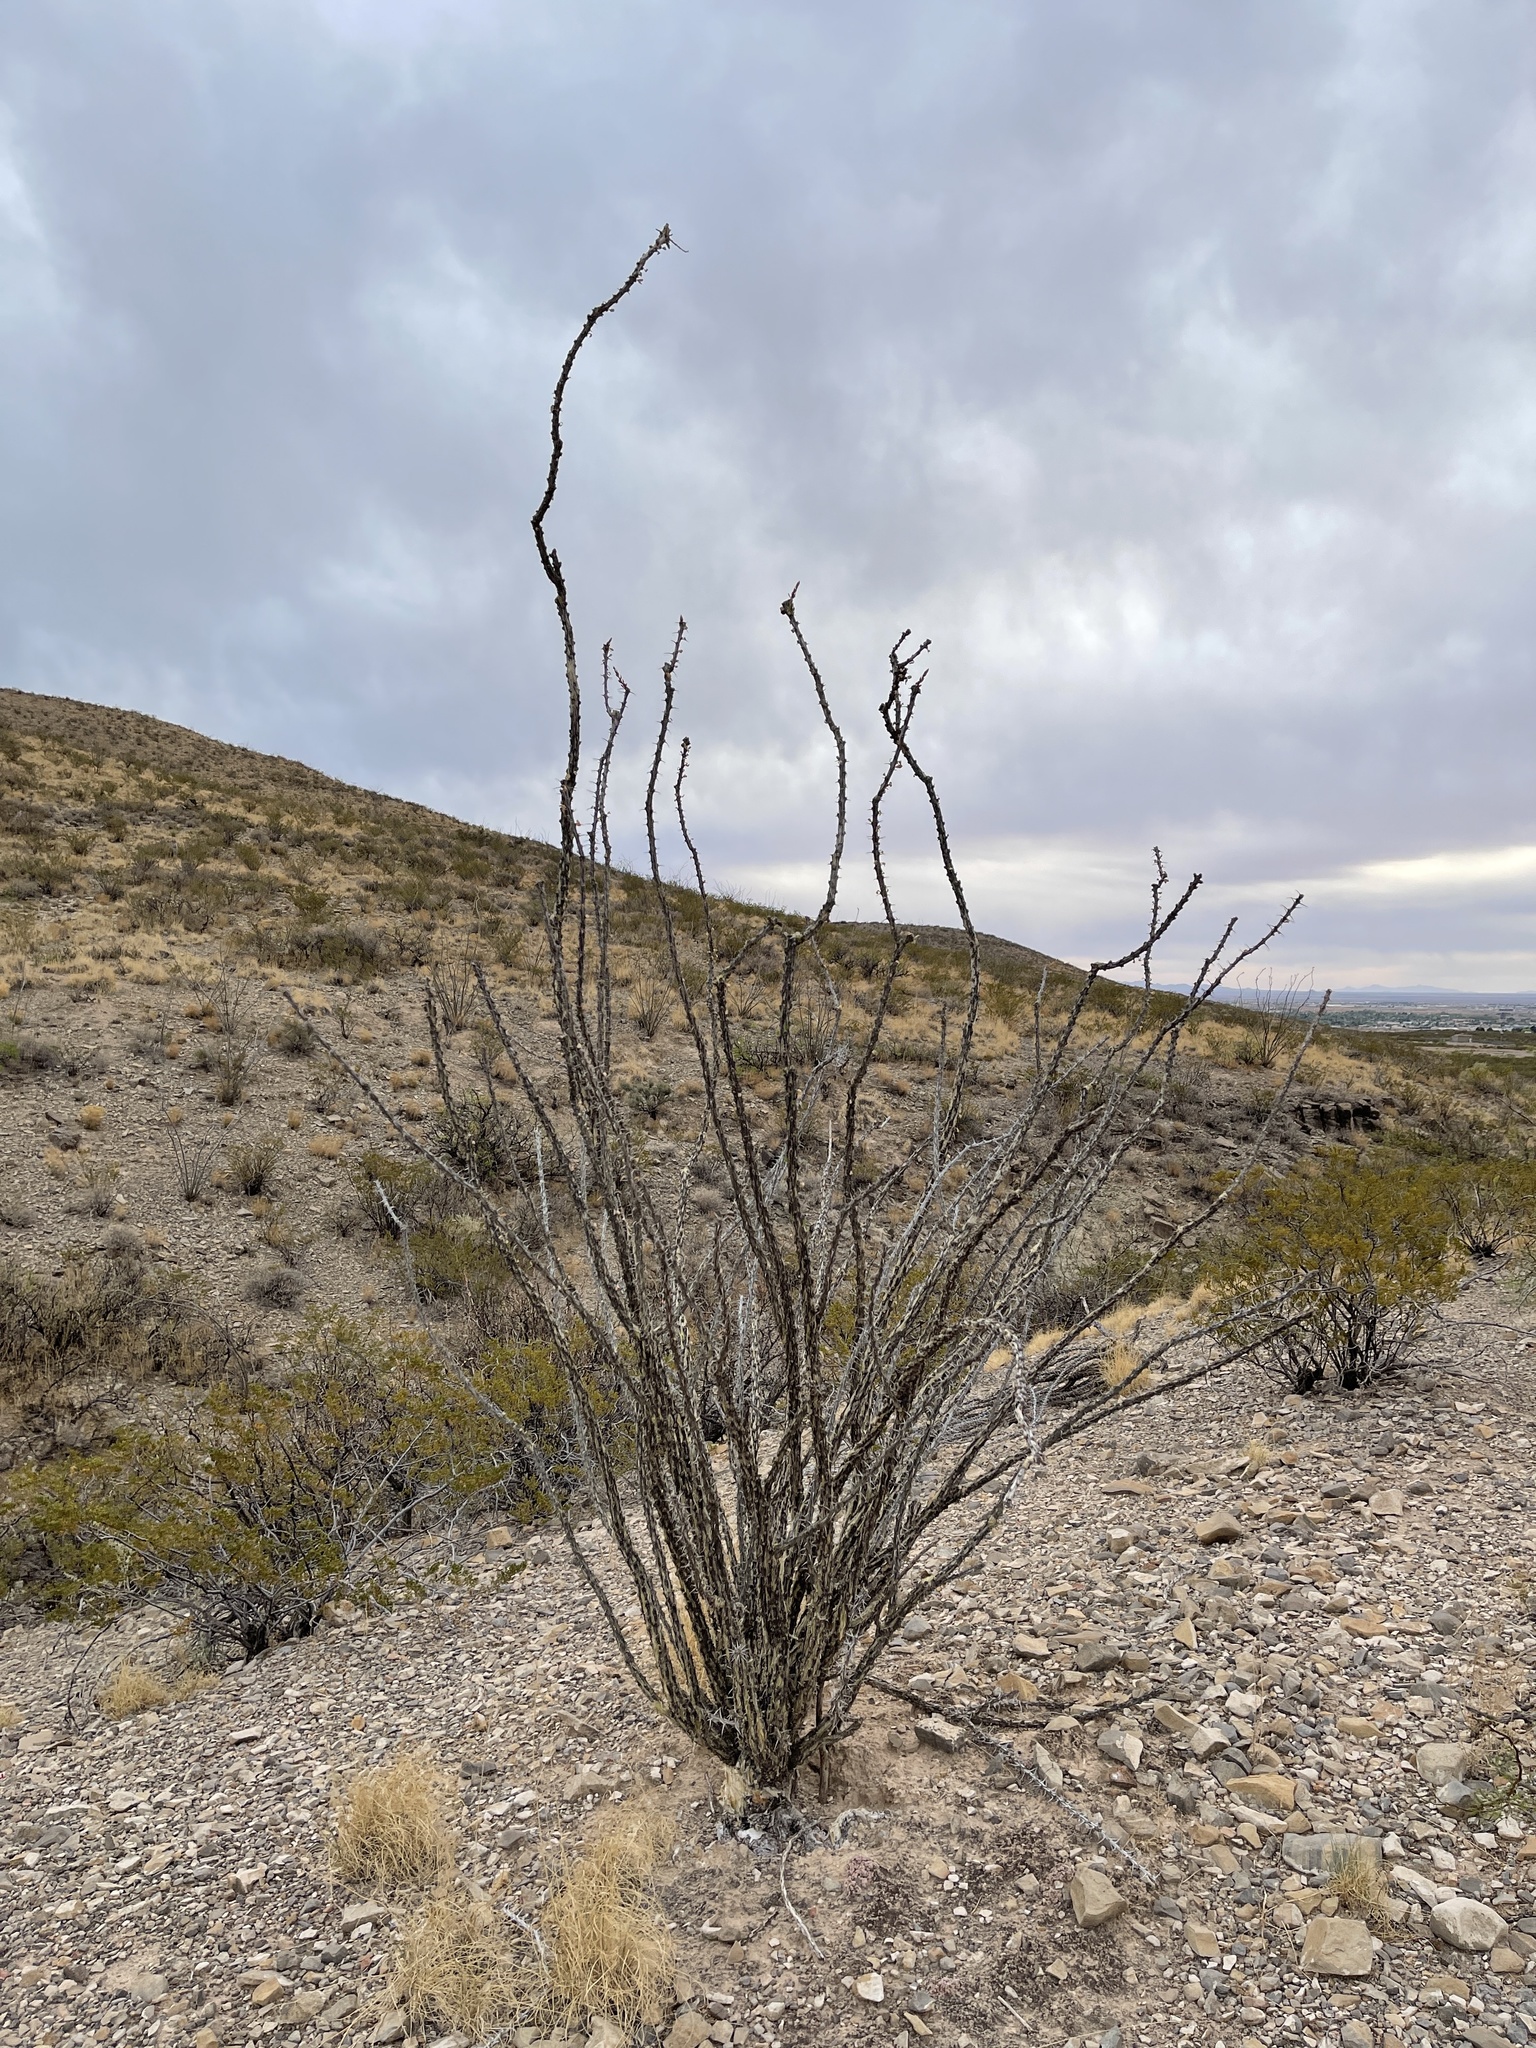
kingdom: Plantae
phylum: Tracheophyta
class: Magnoliopsida
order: Ericales
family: Fouquieriaceae
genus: Fouquieria
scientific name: Fouquieria splendens
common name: Vine-cactus
